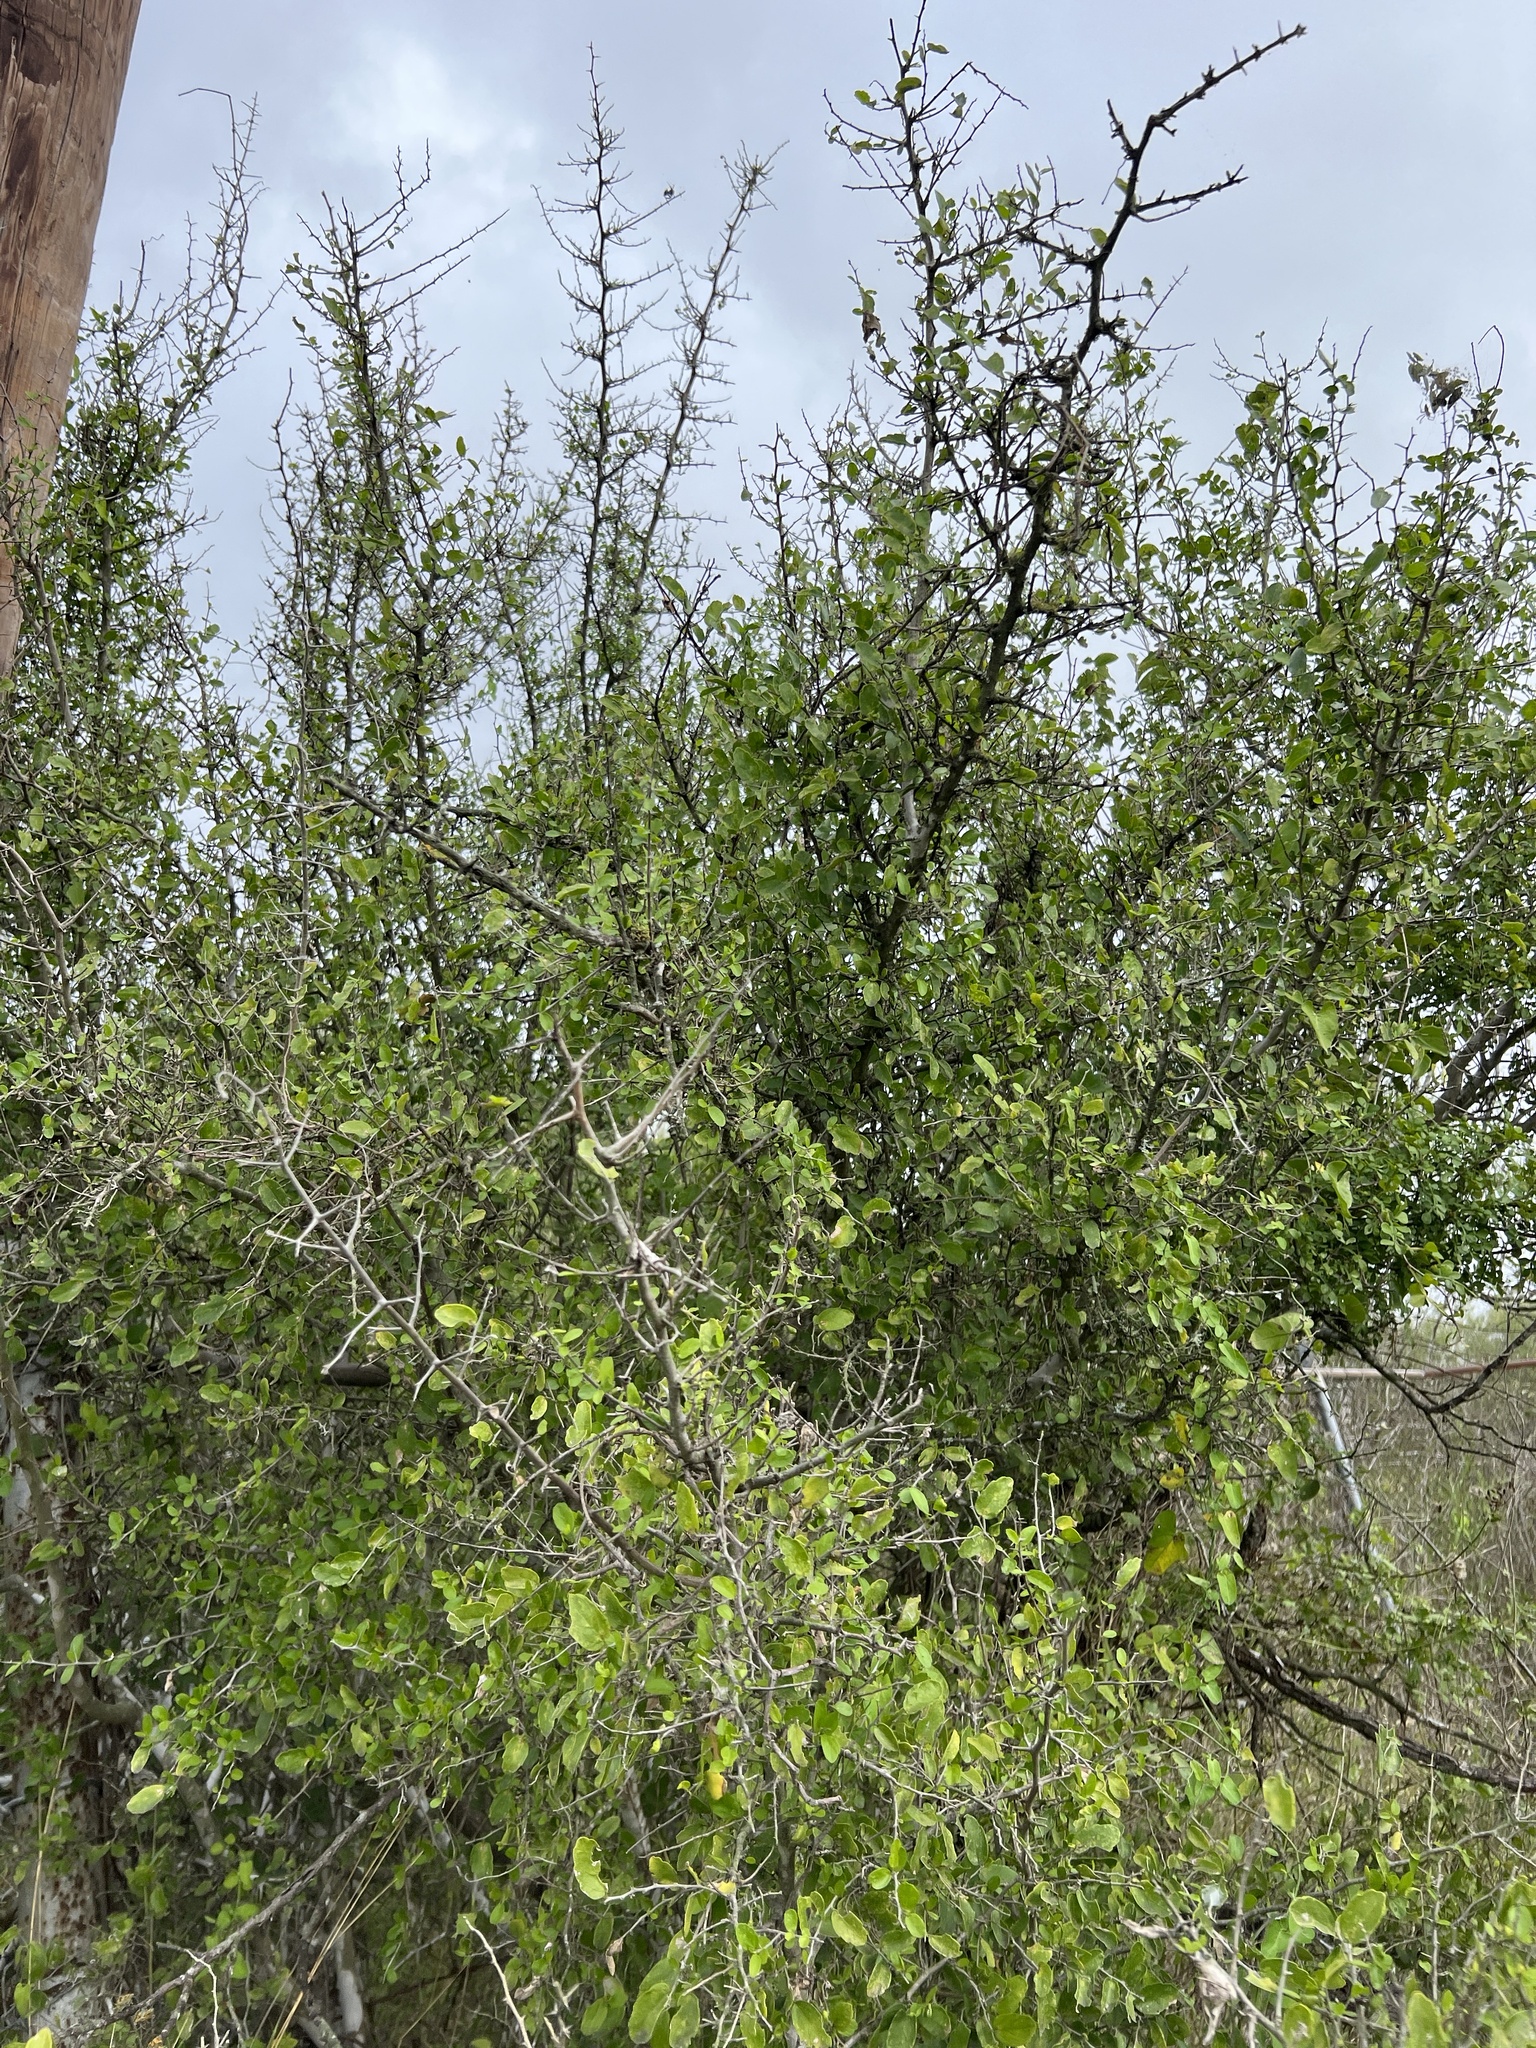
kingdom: Plantae
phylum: Tracheophyta
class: Magnoliopsida
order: Rosales
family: Cannabaceae
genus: Celtis
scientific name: Celtis pallida
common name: Desert hackberry
